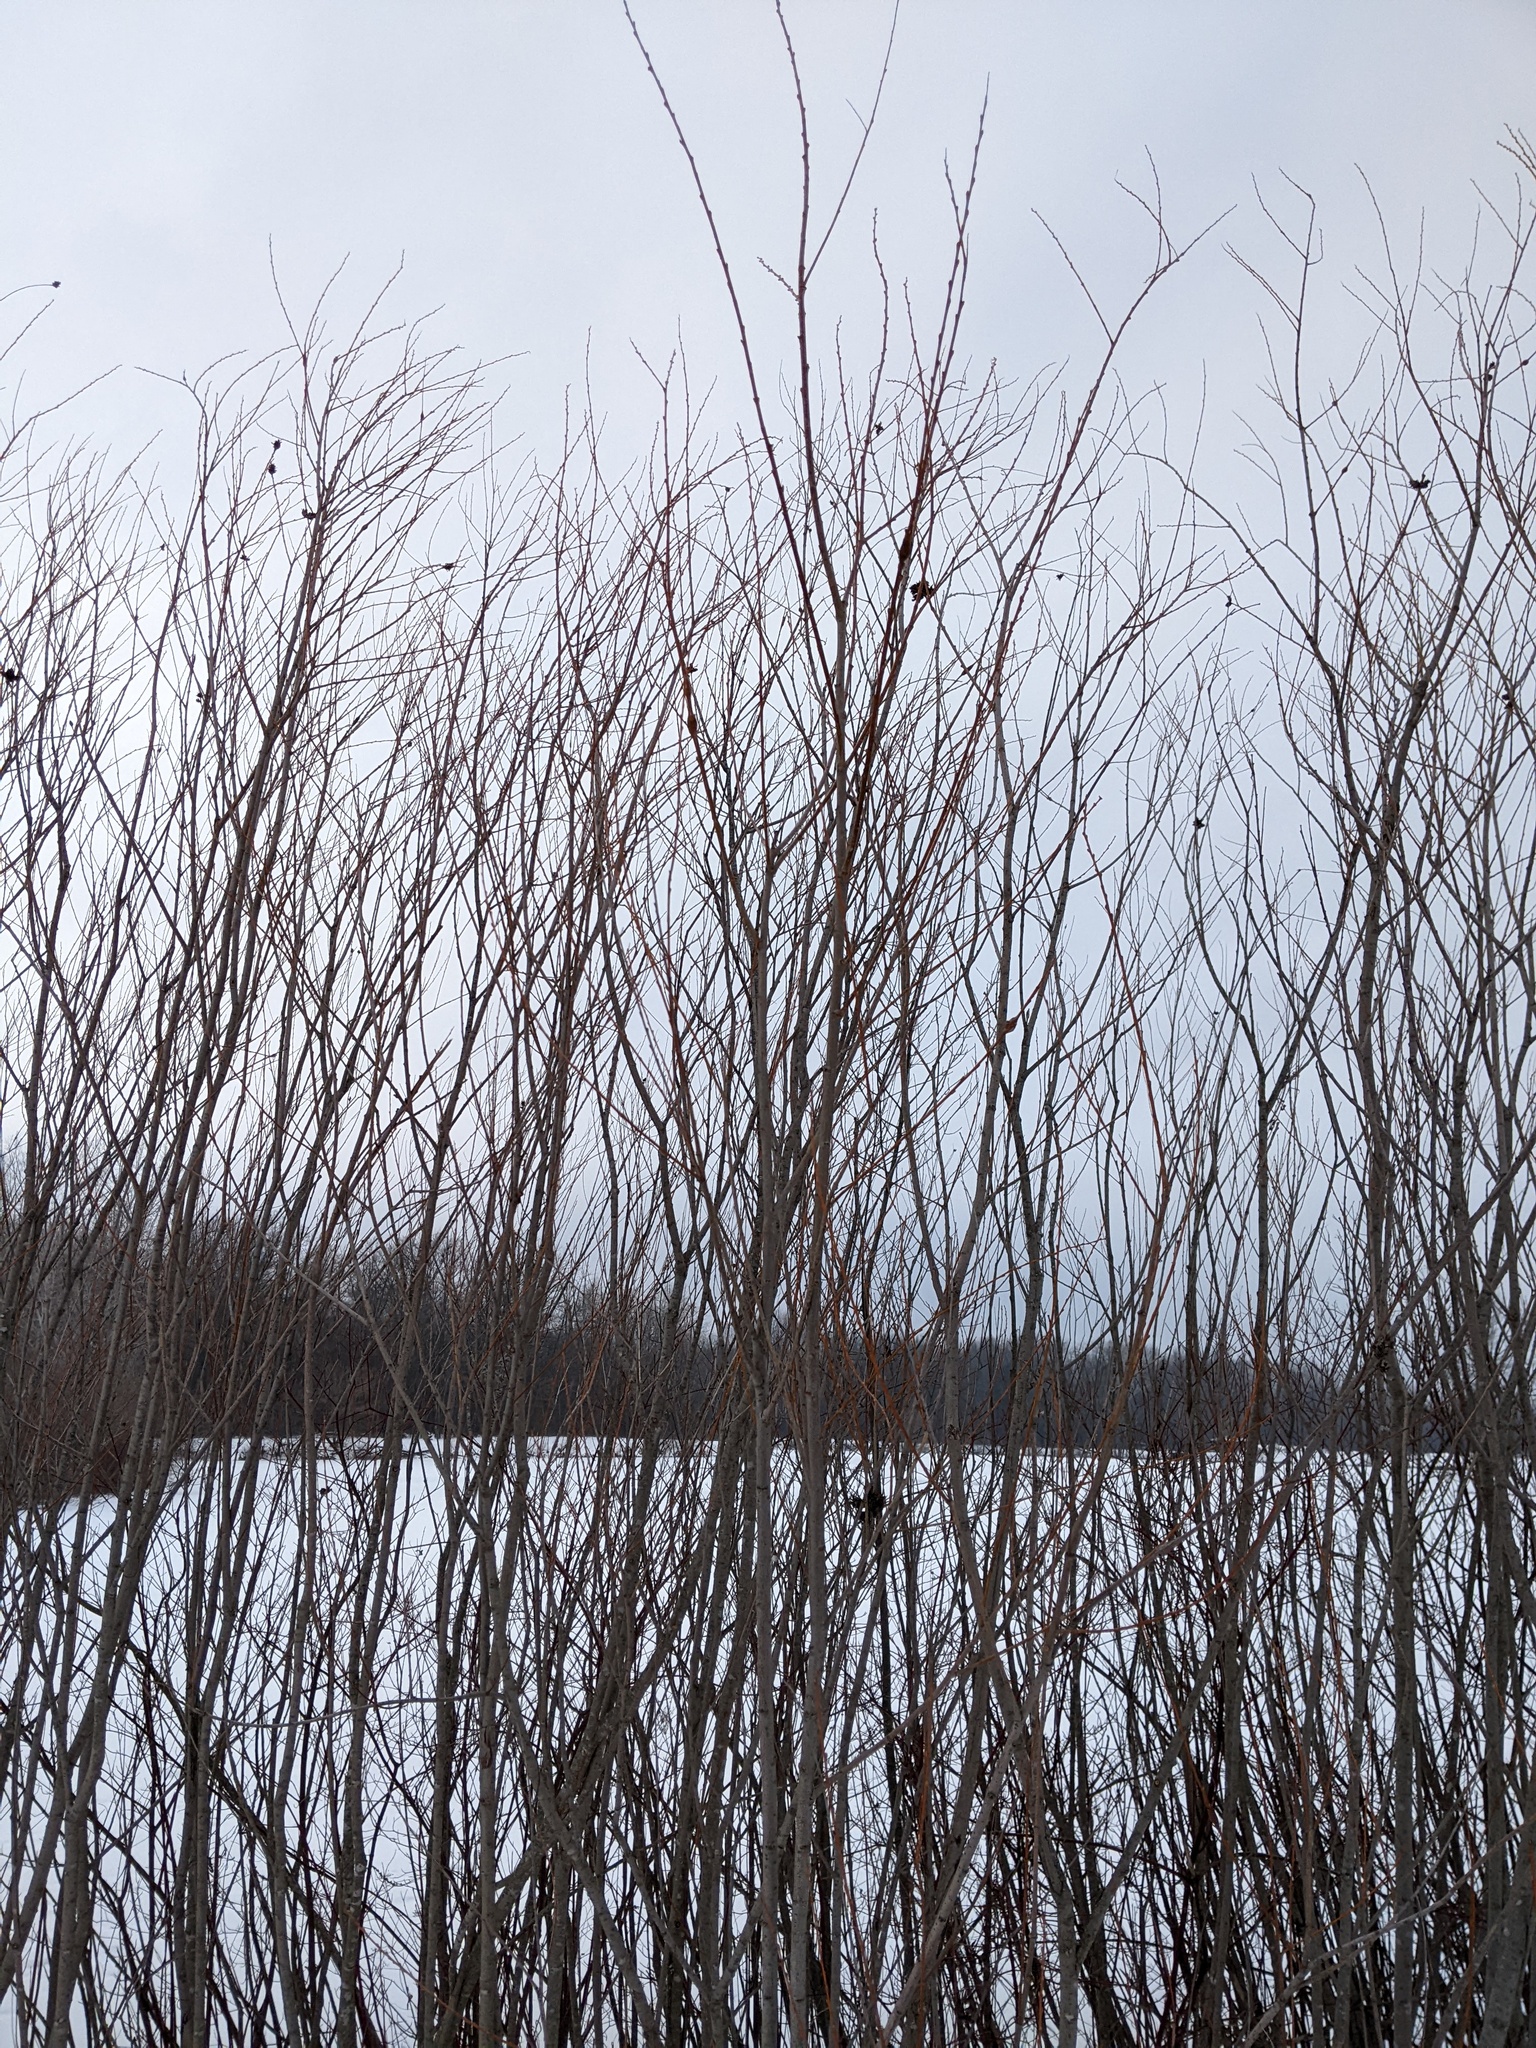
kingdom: Plantae
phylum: Tracheophyta
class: Magnoliopsida
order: Malpighiales
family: Salicaceae
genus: Salix
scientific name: Salix interior
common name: Sandbar willow
